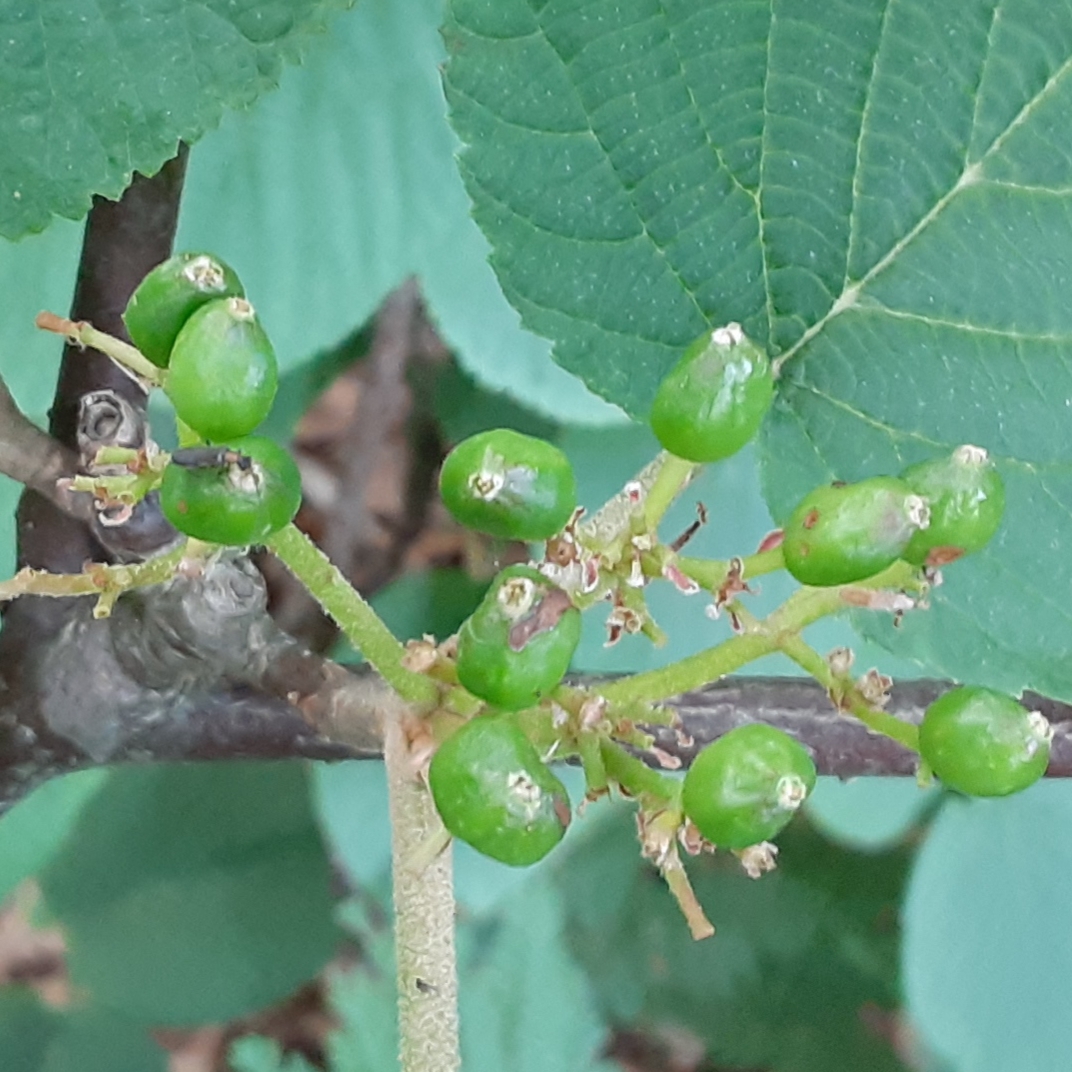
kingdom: Plantae
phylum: Tracheophyta
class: Magnoliopsida
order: Dipsacales
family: Viburnaceae
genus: Viburnum
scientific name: Viburnum lantanoides
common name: Hobblebush
